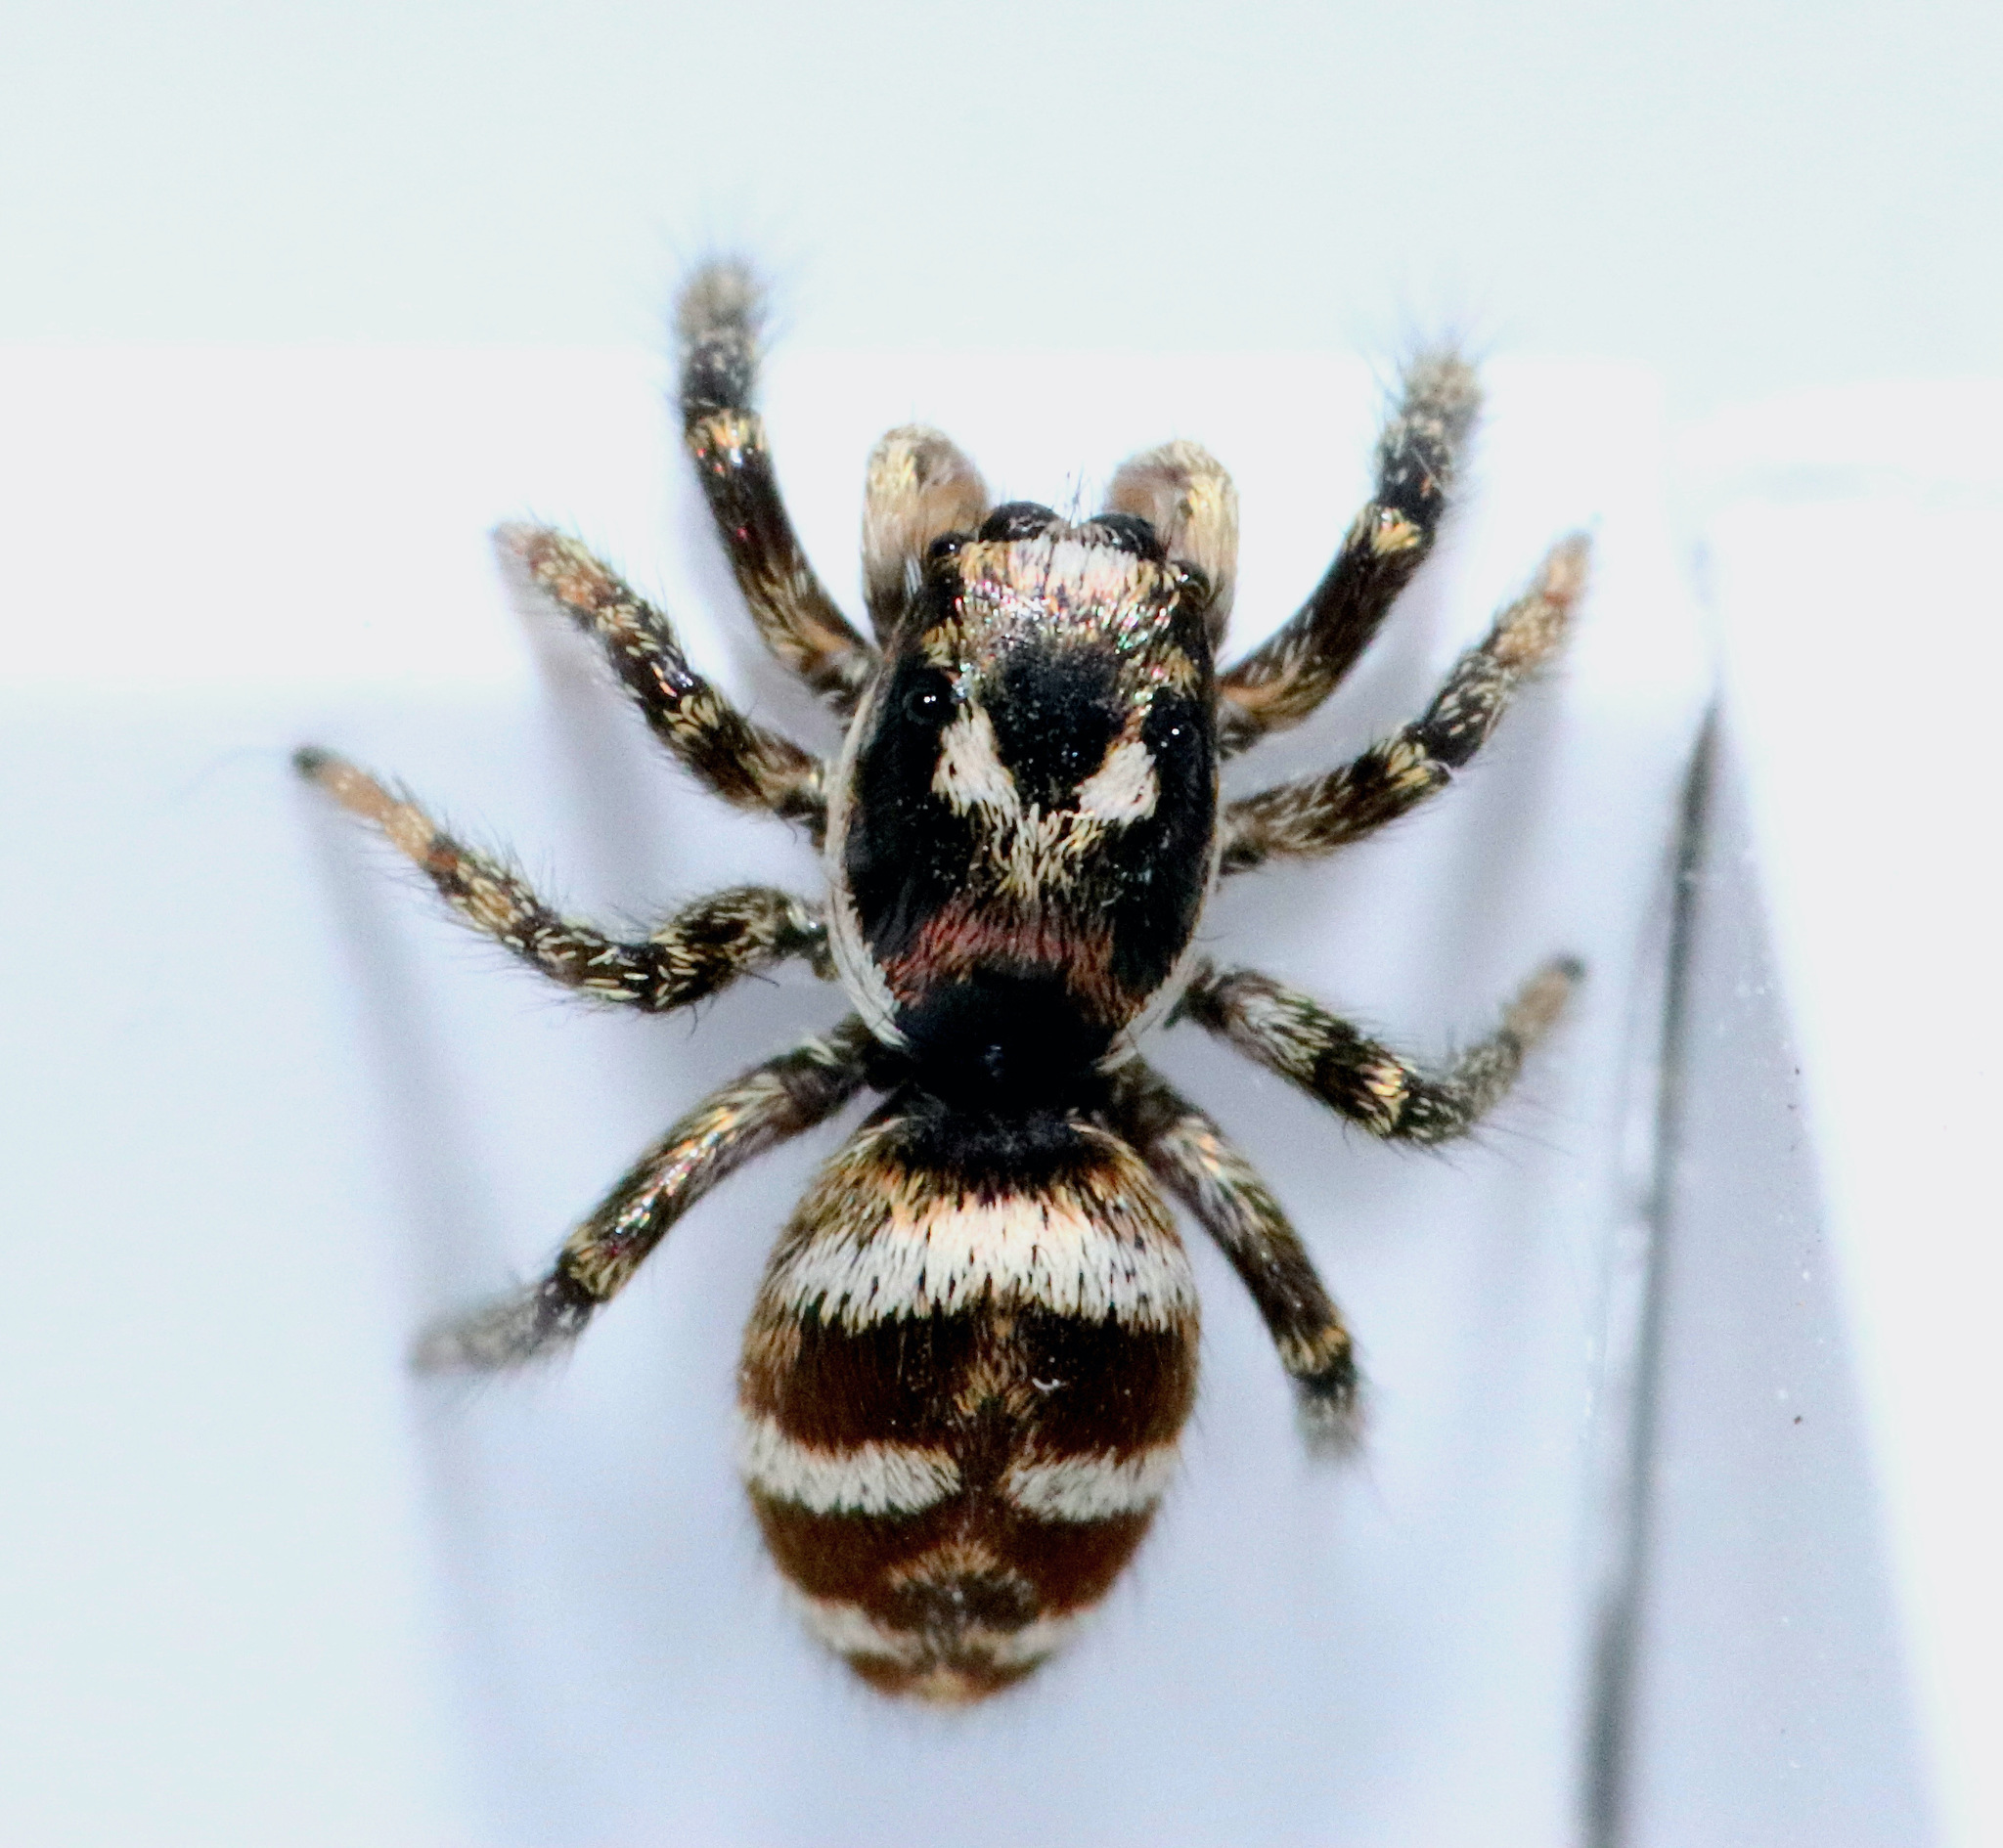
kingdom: Animalia
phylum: Arthropoda
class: Arachnida
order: Araneae
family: Salticidae
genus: Salticus
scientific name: Salticus scenicus
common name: Zebra jumper
